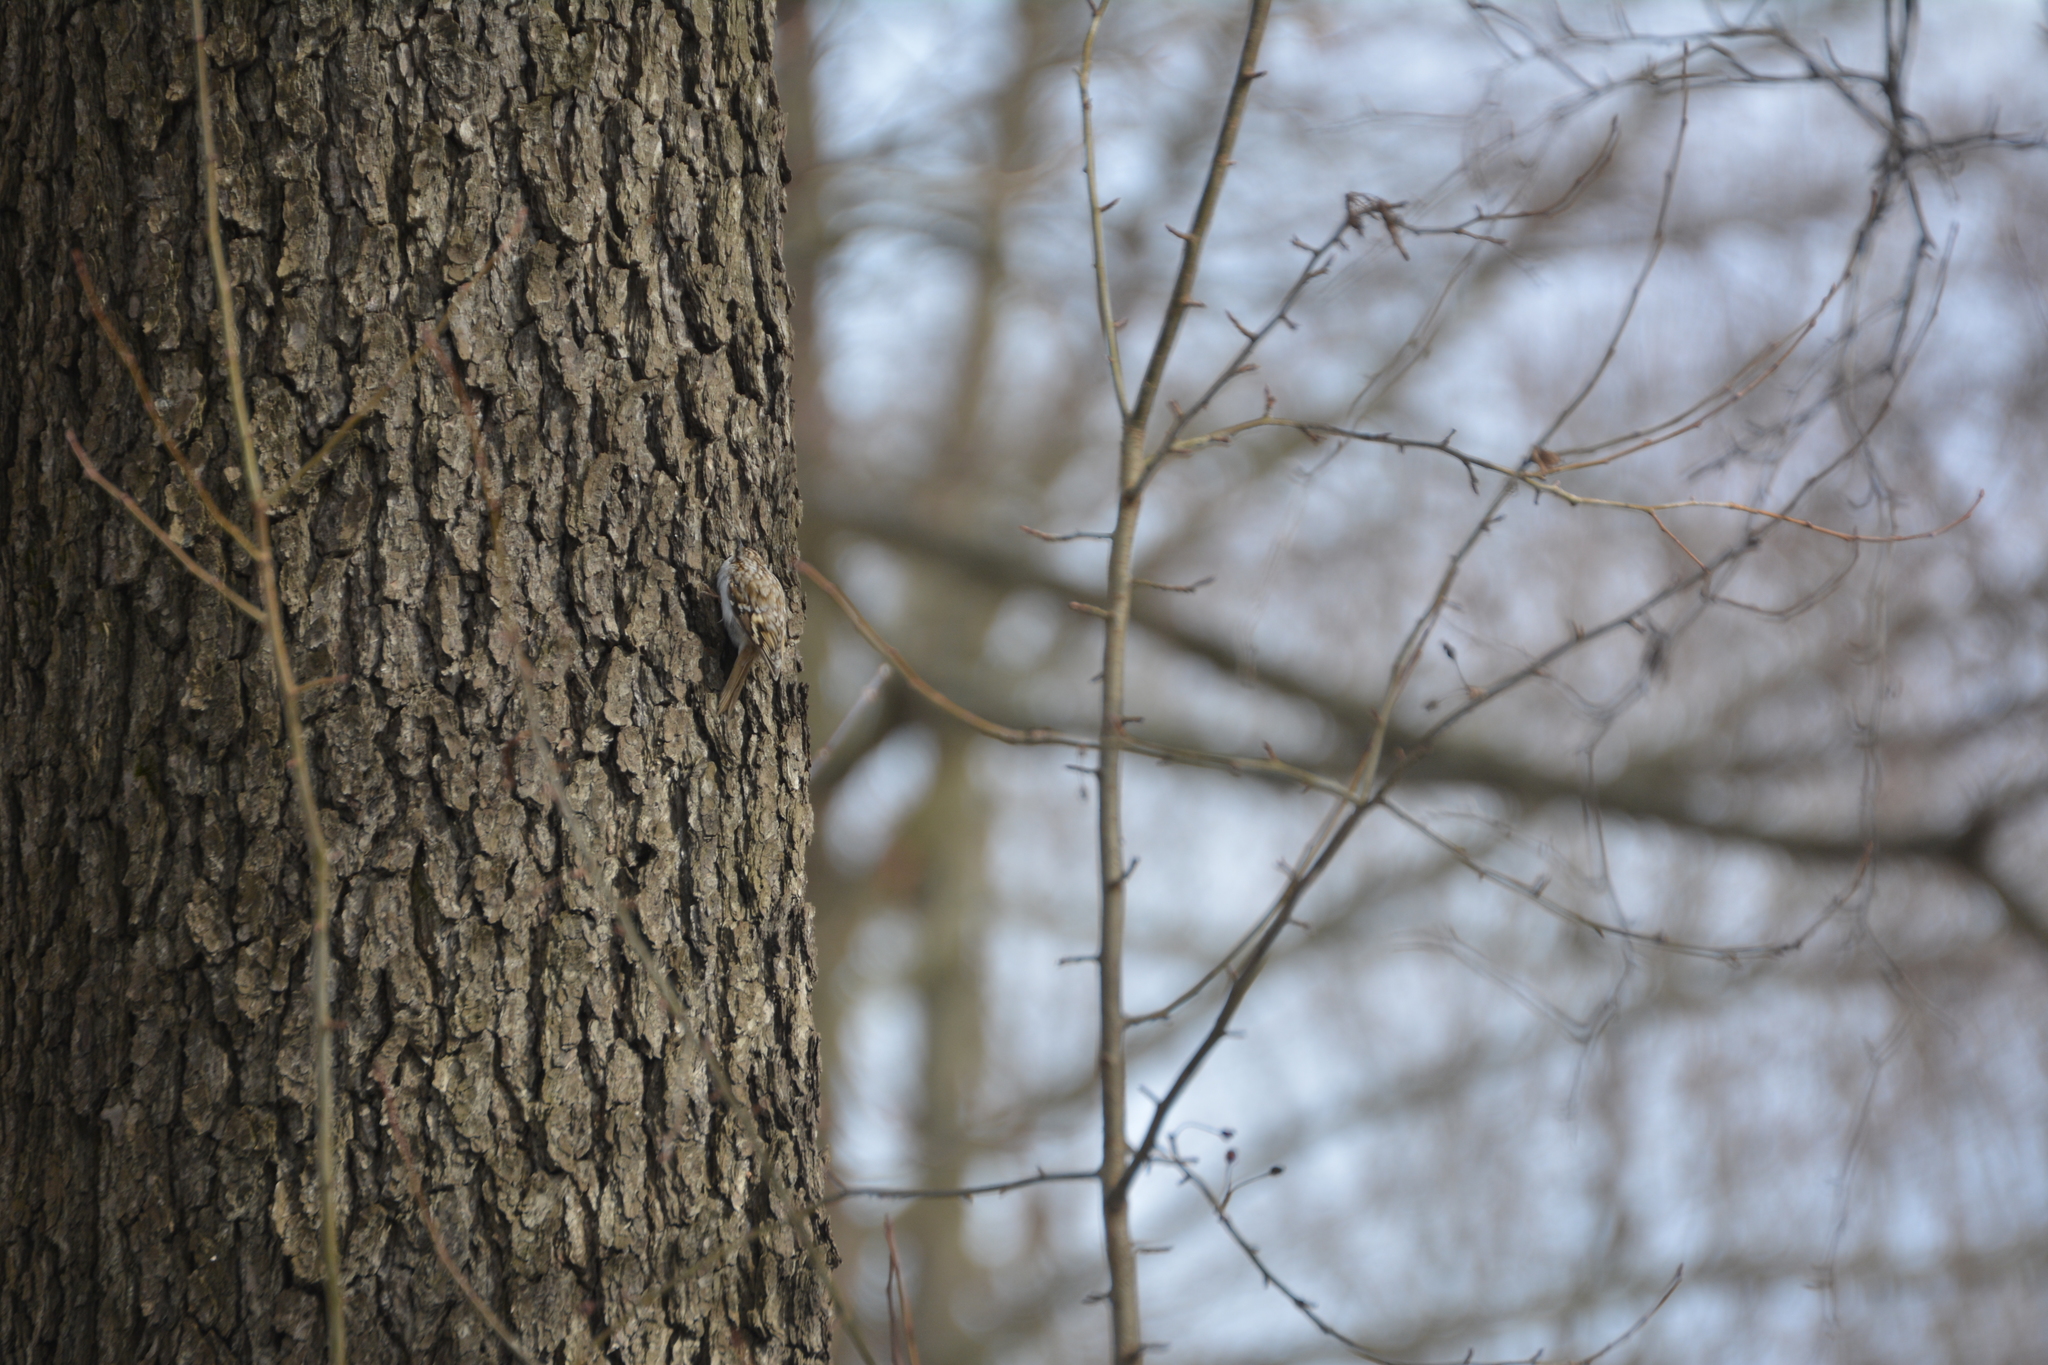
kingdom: Animalia
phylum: Chordata
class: Aves
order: Passeriformes
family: Certhiidae
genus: Certhia
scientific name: Certhia familiaris
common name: Eurasian treecreeper
